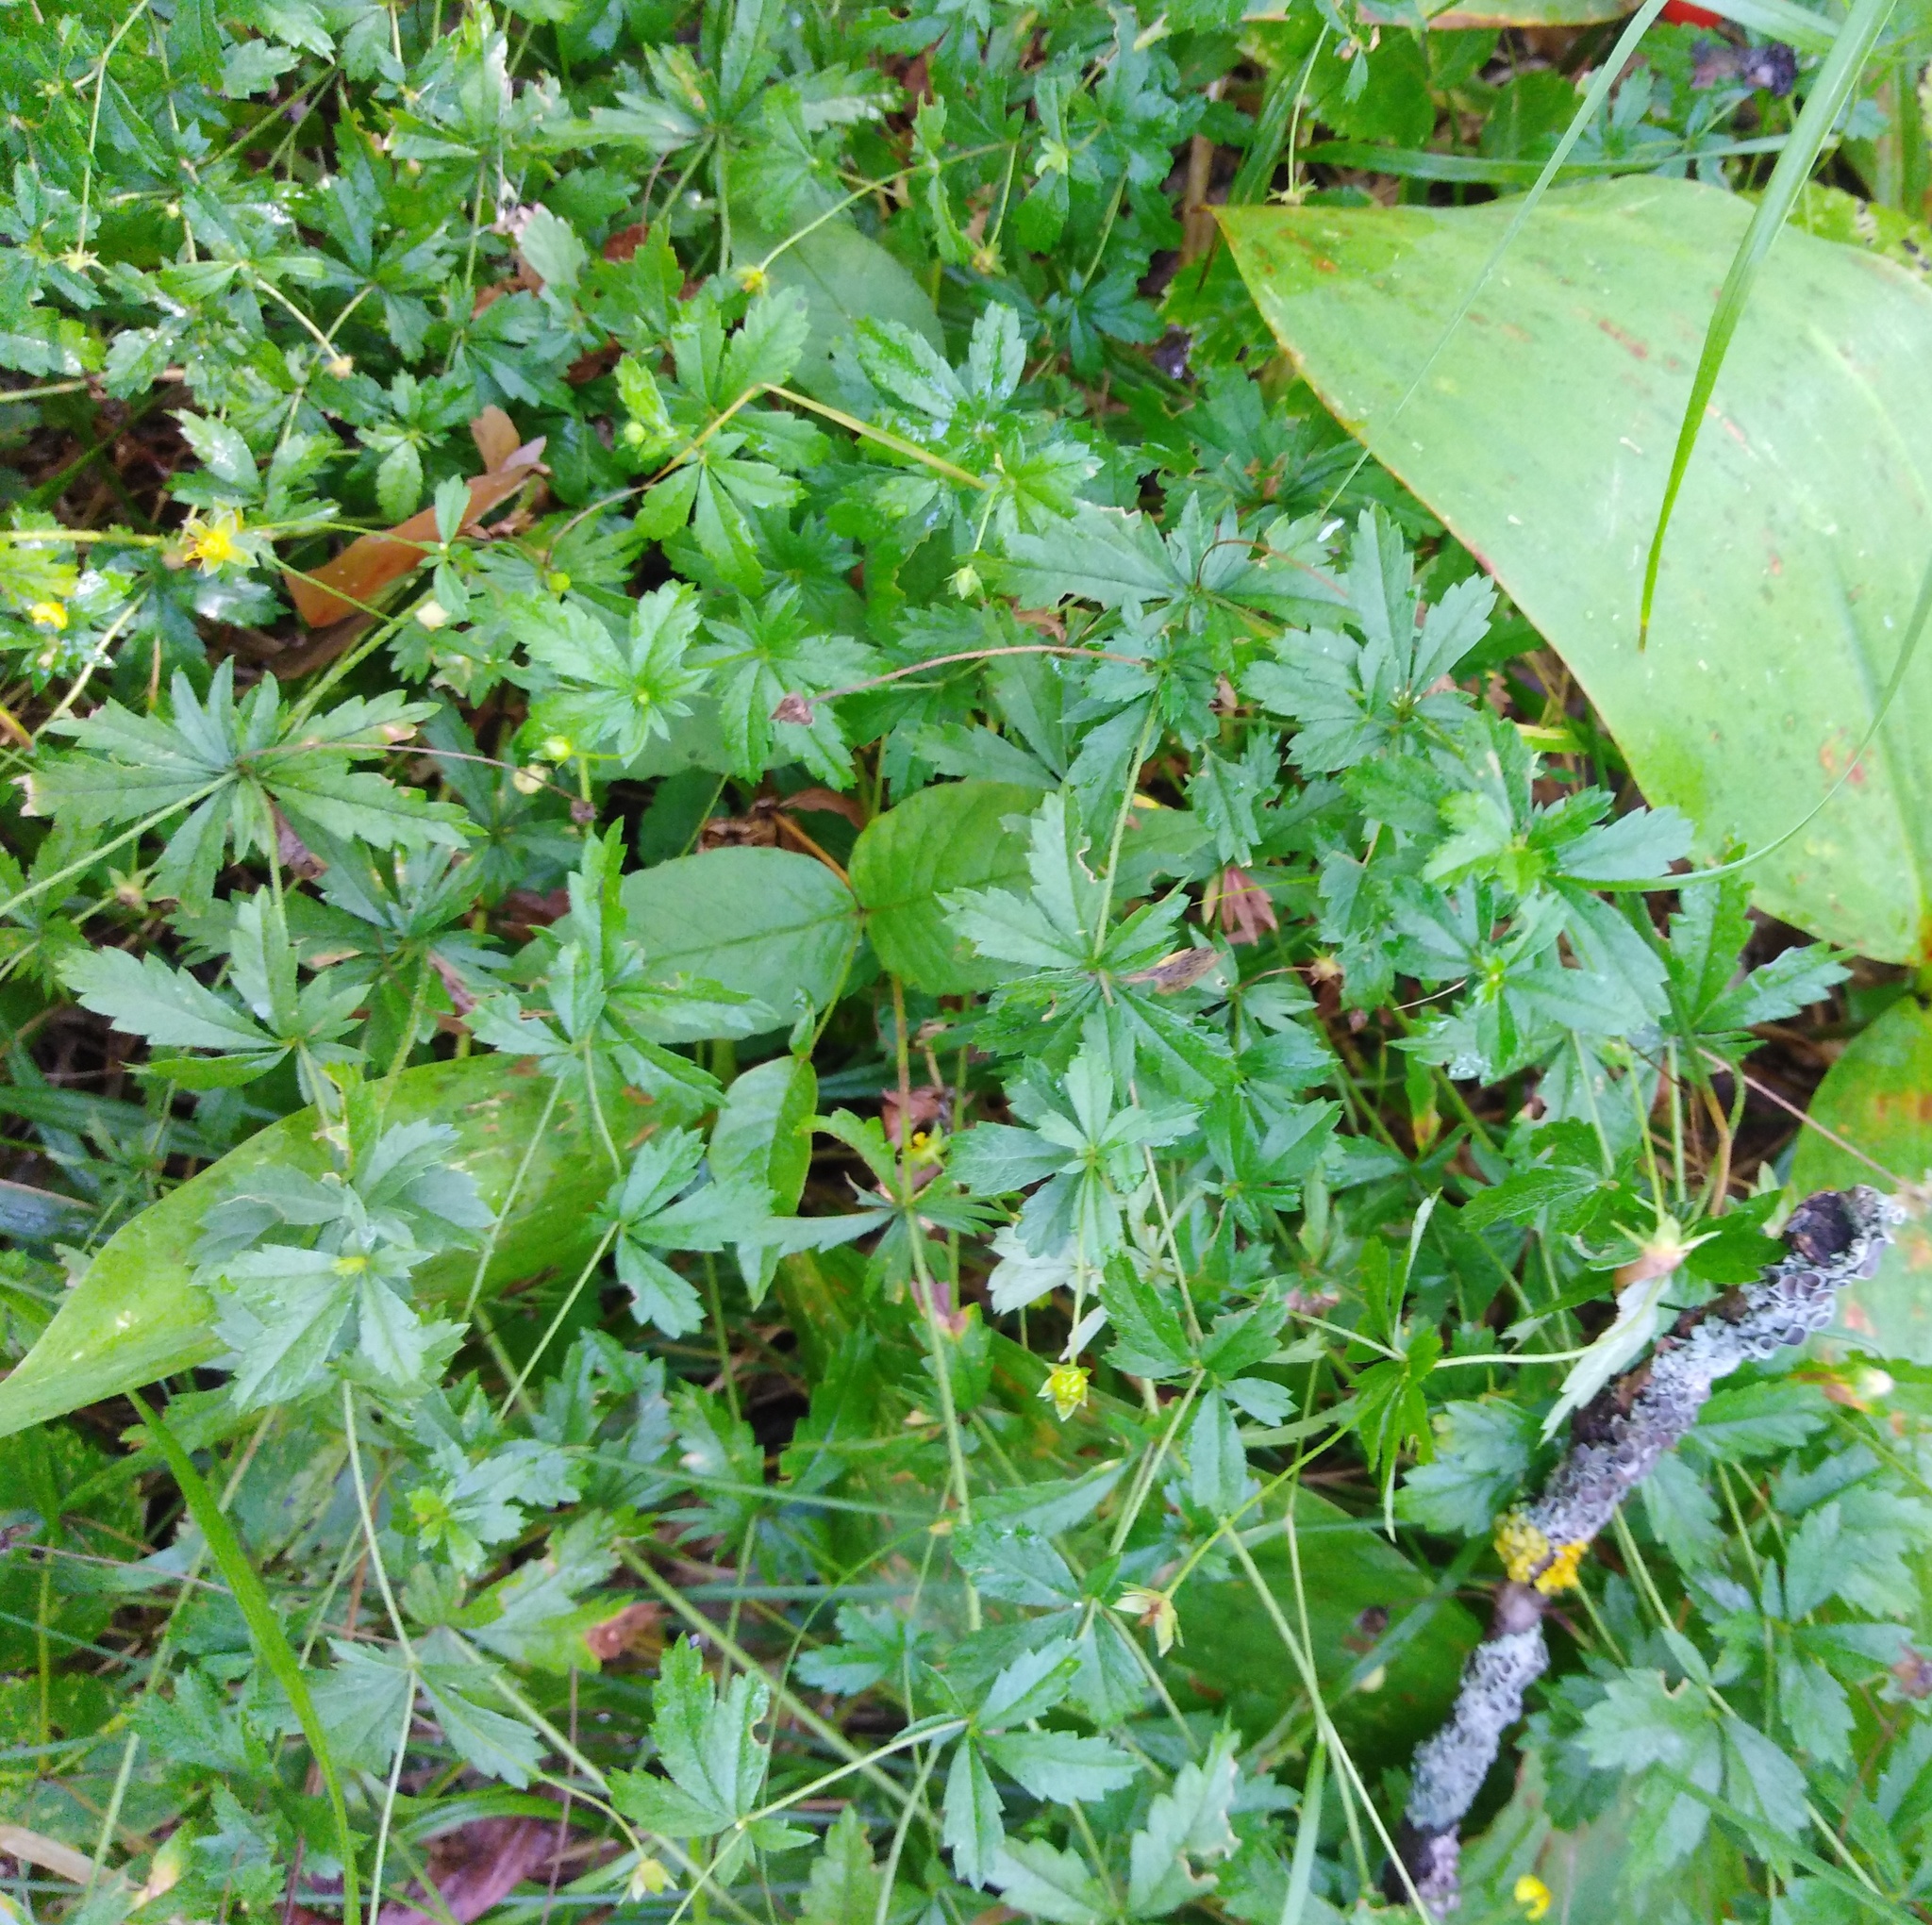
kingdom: Plantae
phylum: Tracheophyta
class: Magnoliopsida
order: Rosales
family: Rosaceae
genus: Potentilla
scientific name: Potentilla erecta
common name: Tormentil
